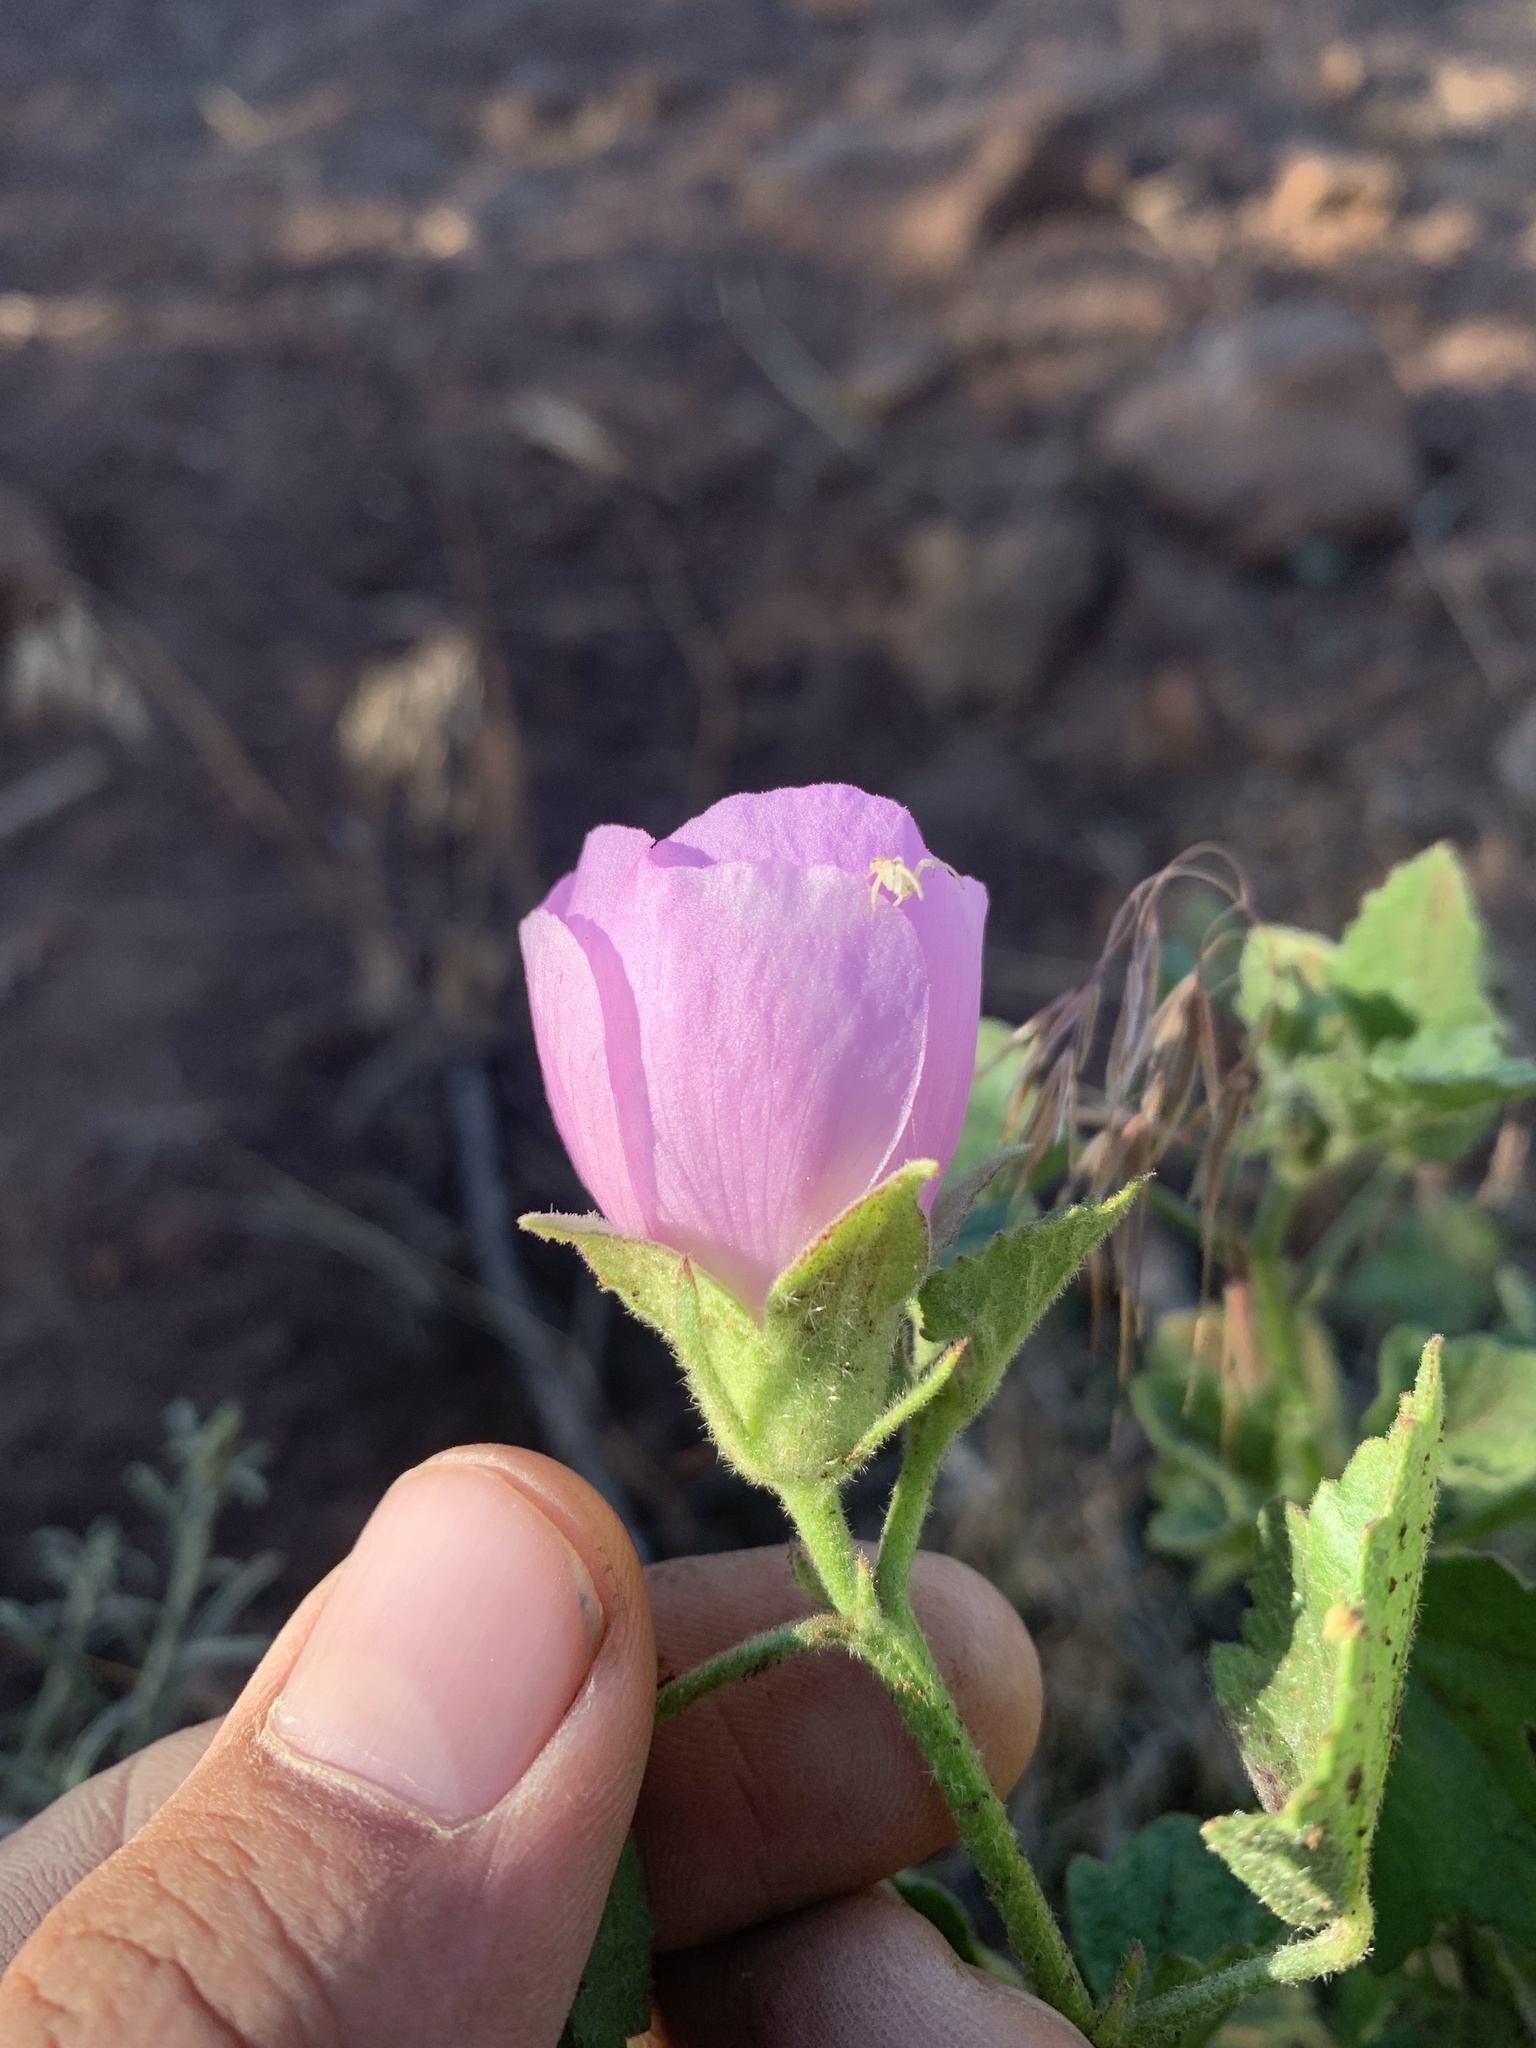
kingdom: Plantae
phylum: Tracheophyta
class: Magnoliopsida
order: Malvales
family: Malvaceae
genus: Iliamna
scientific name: Iliamna bakeri
